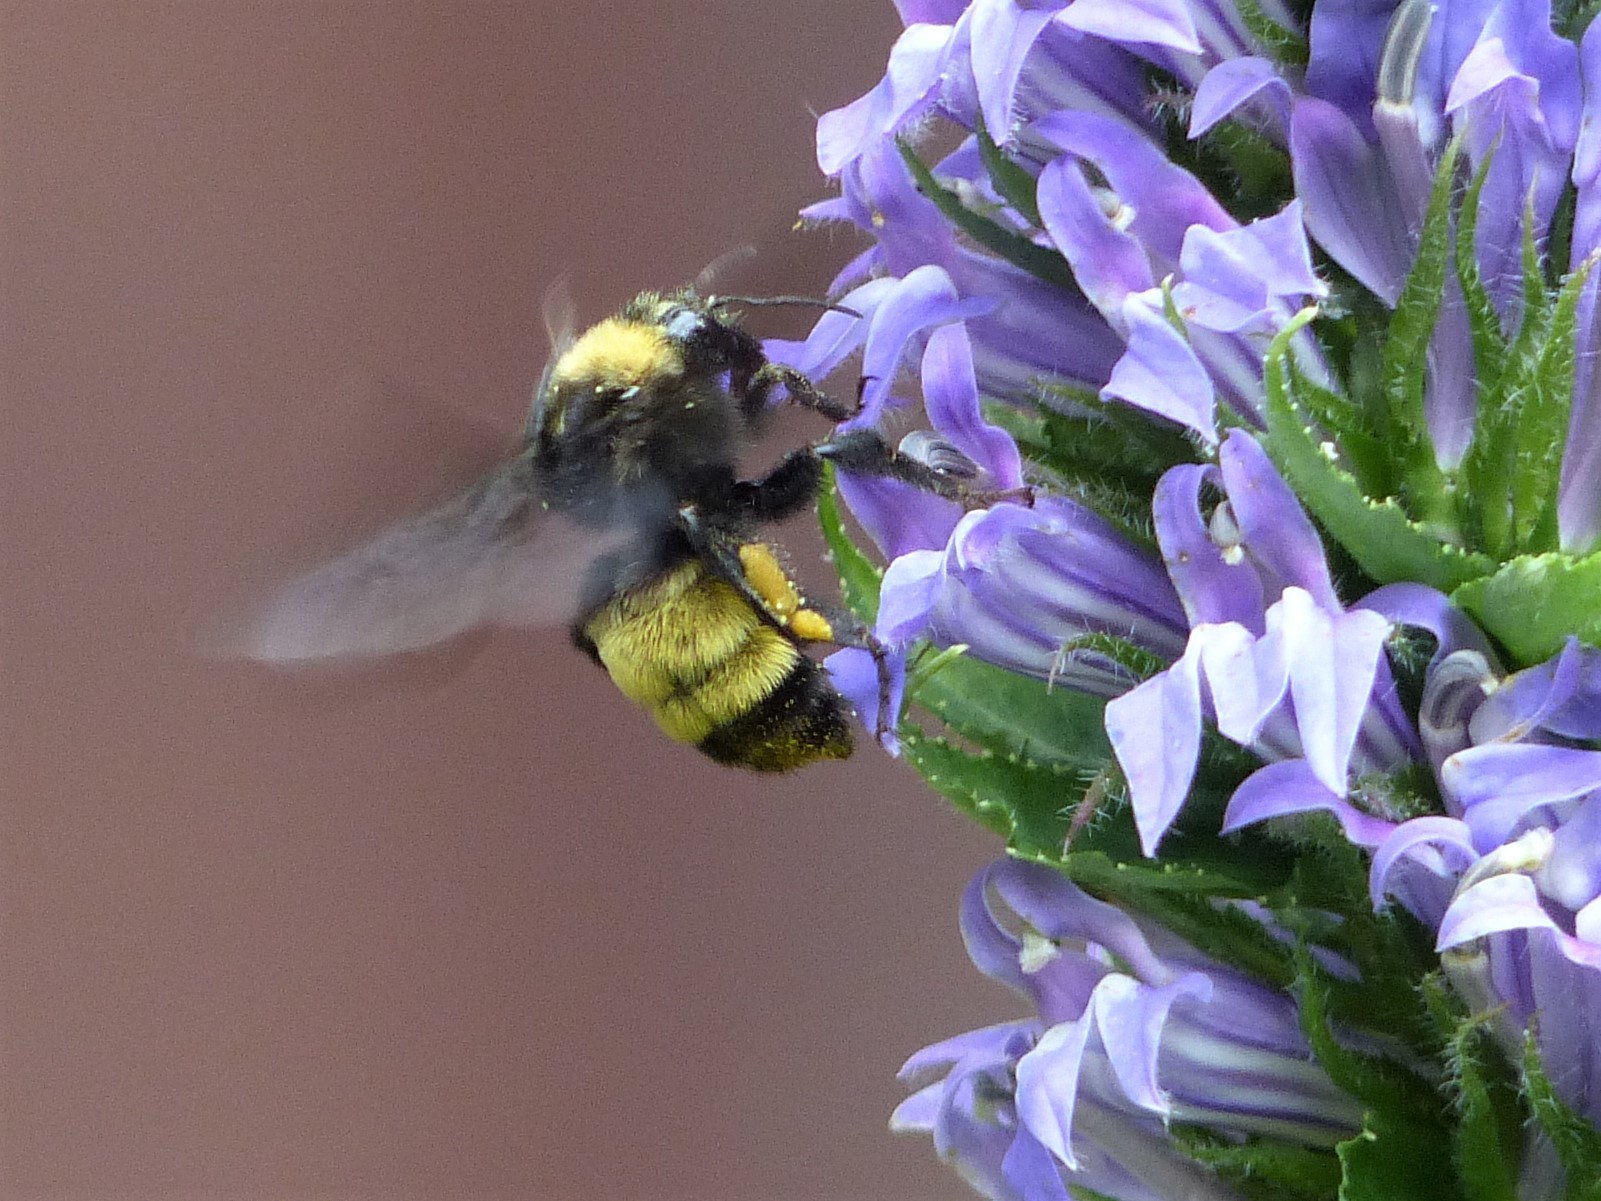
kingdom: Animalia
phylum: Arthropoda
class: Insecta
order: Hymenoptera
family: Apidae
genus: Bombus
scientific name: Bombus pensylvanicus
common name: Bumble bee
